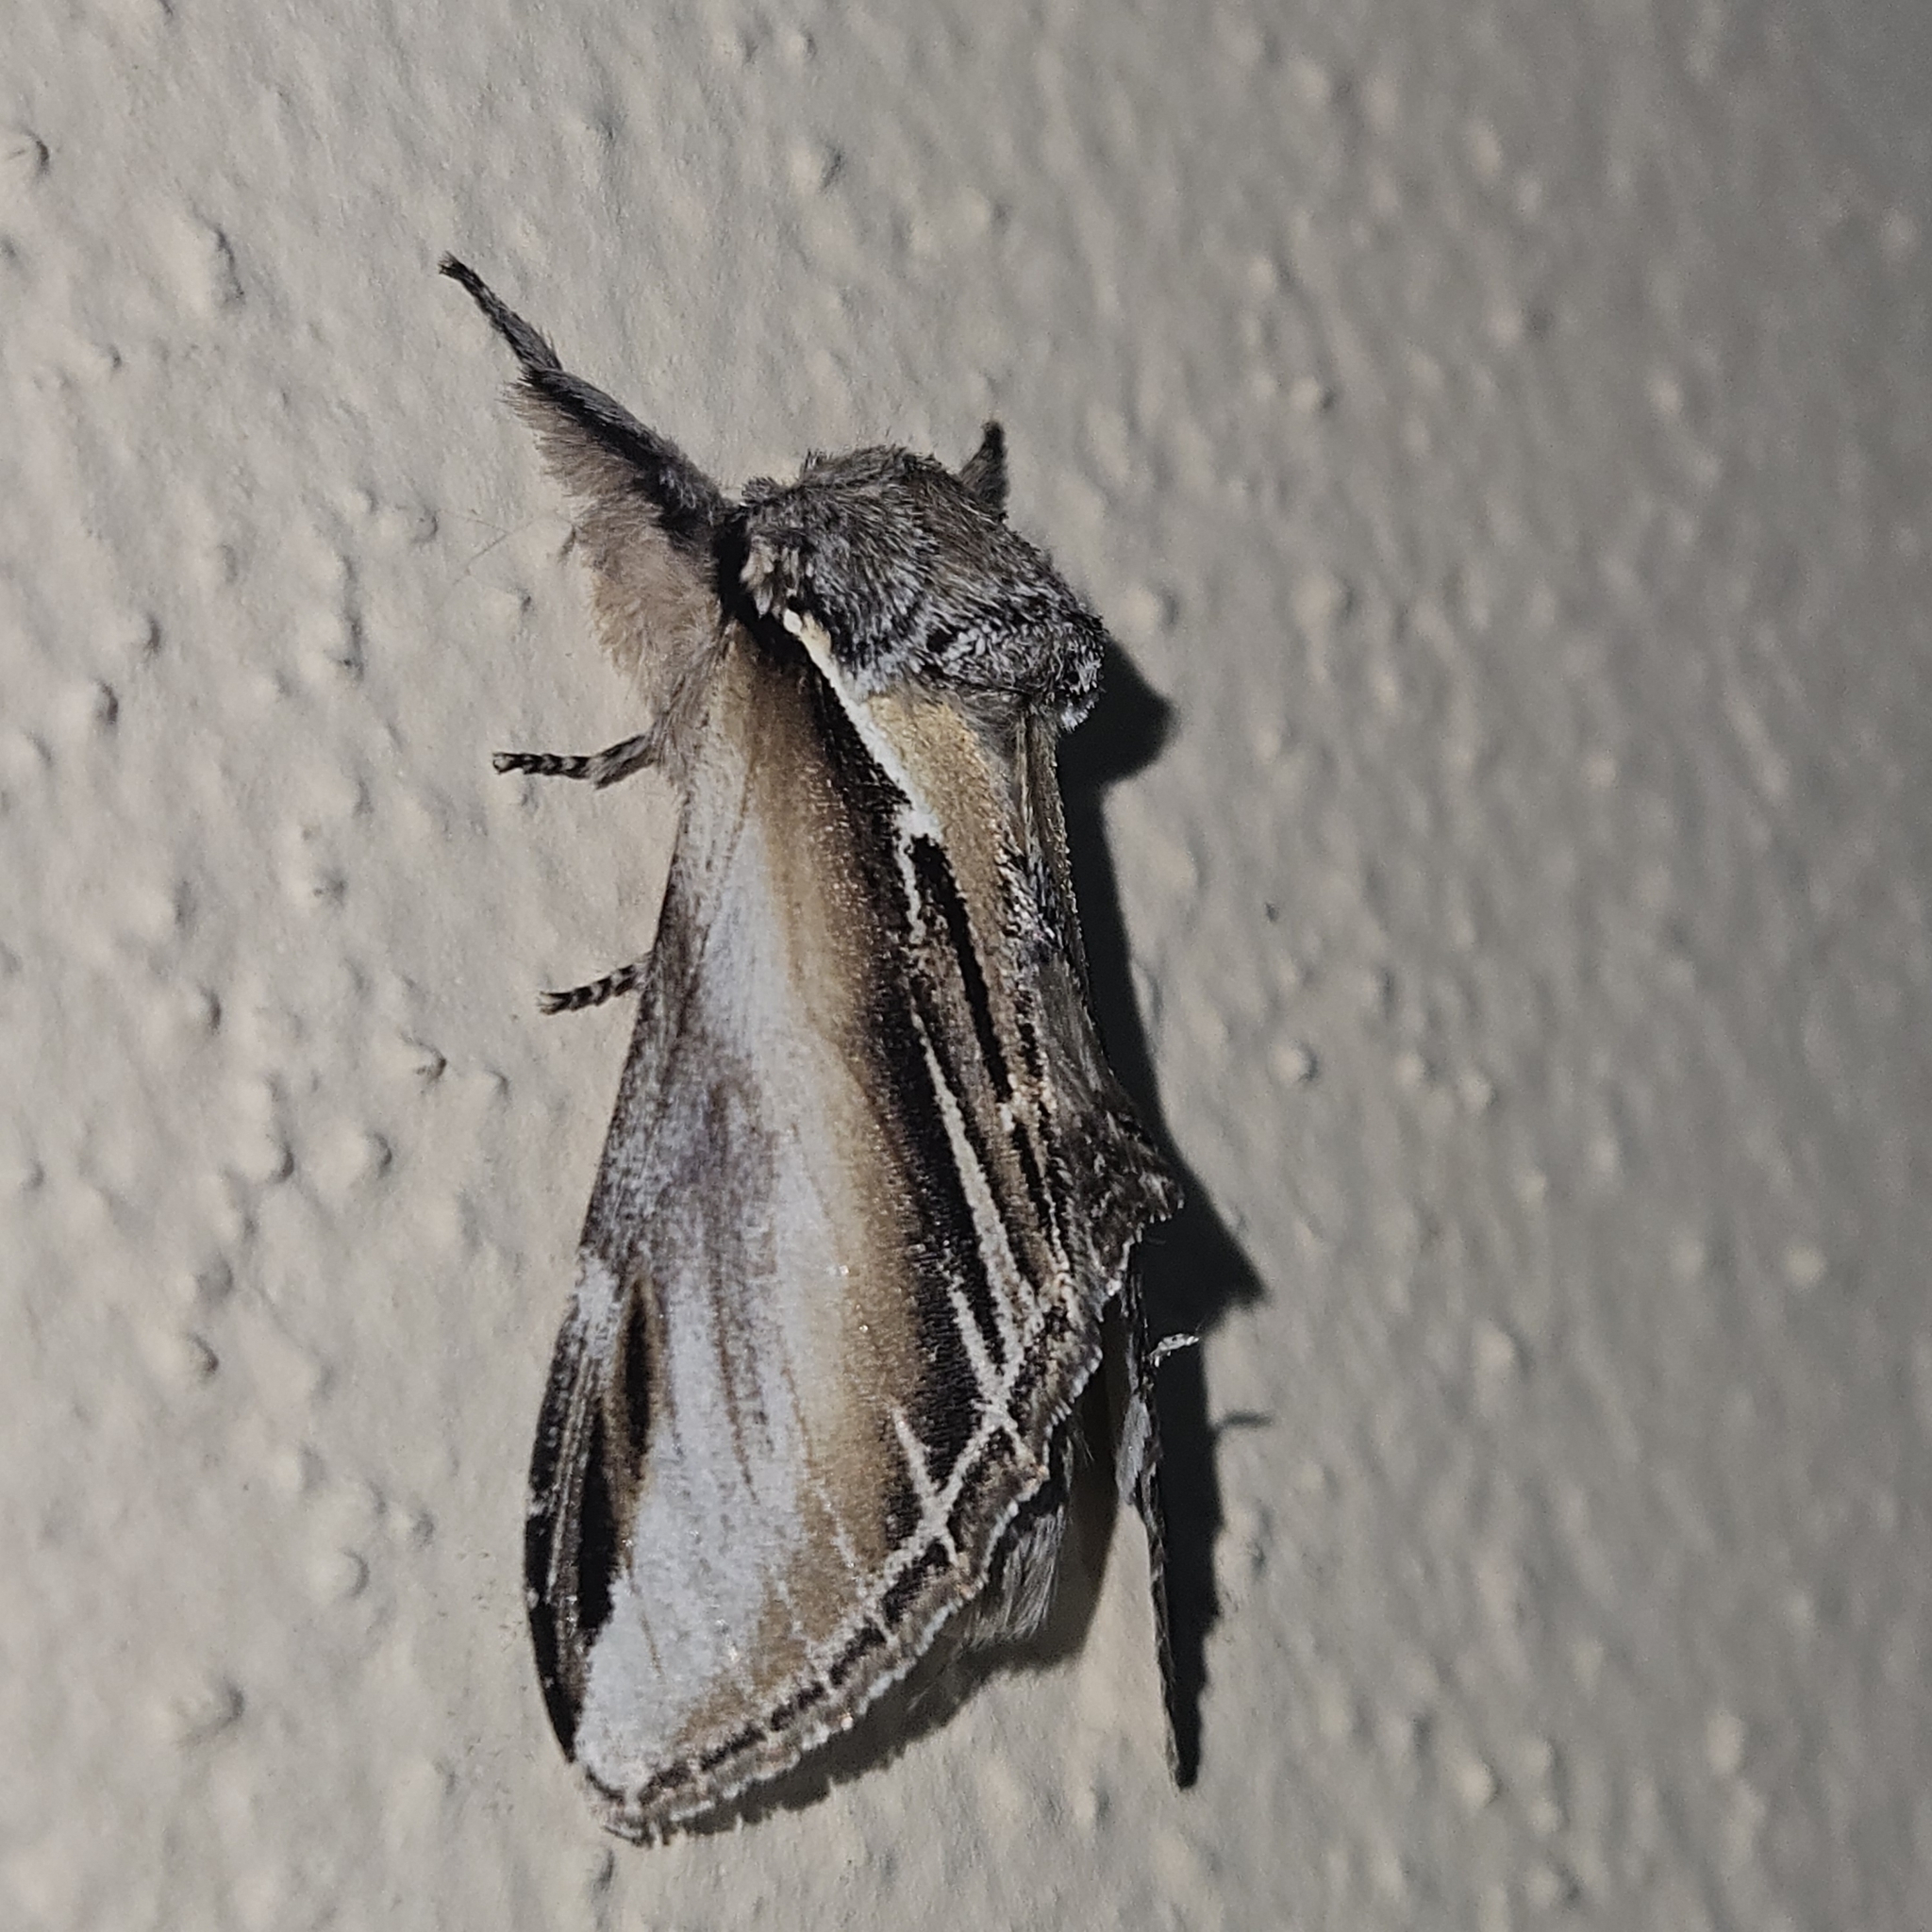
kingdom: Animalia
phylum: Arthropoda
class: Insecta
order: Lepidoptera
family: Notodontidae
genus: Pheosia
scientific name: Pheosia tremula
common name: Swallow prominent
